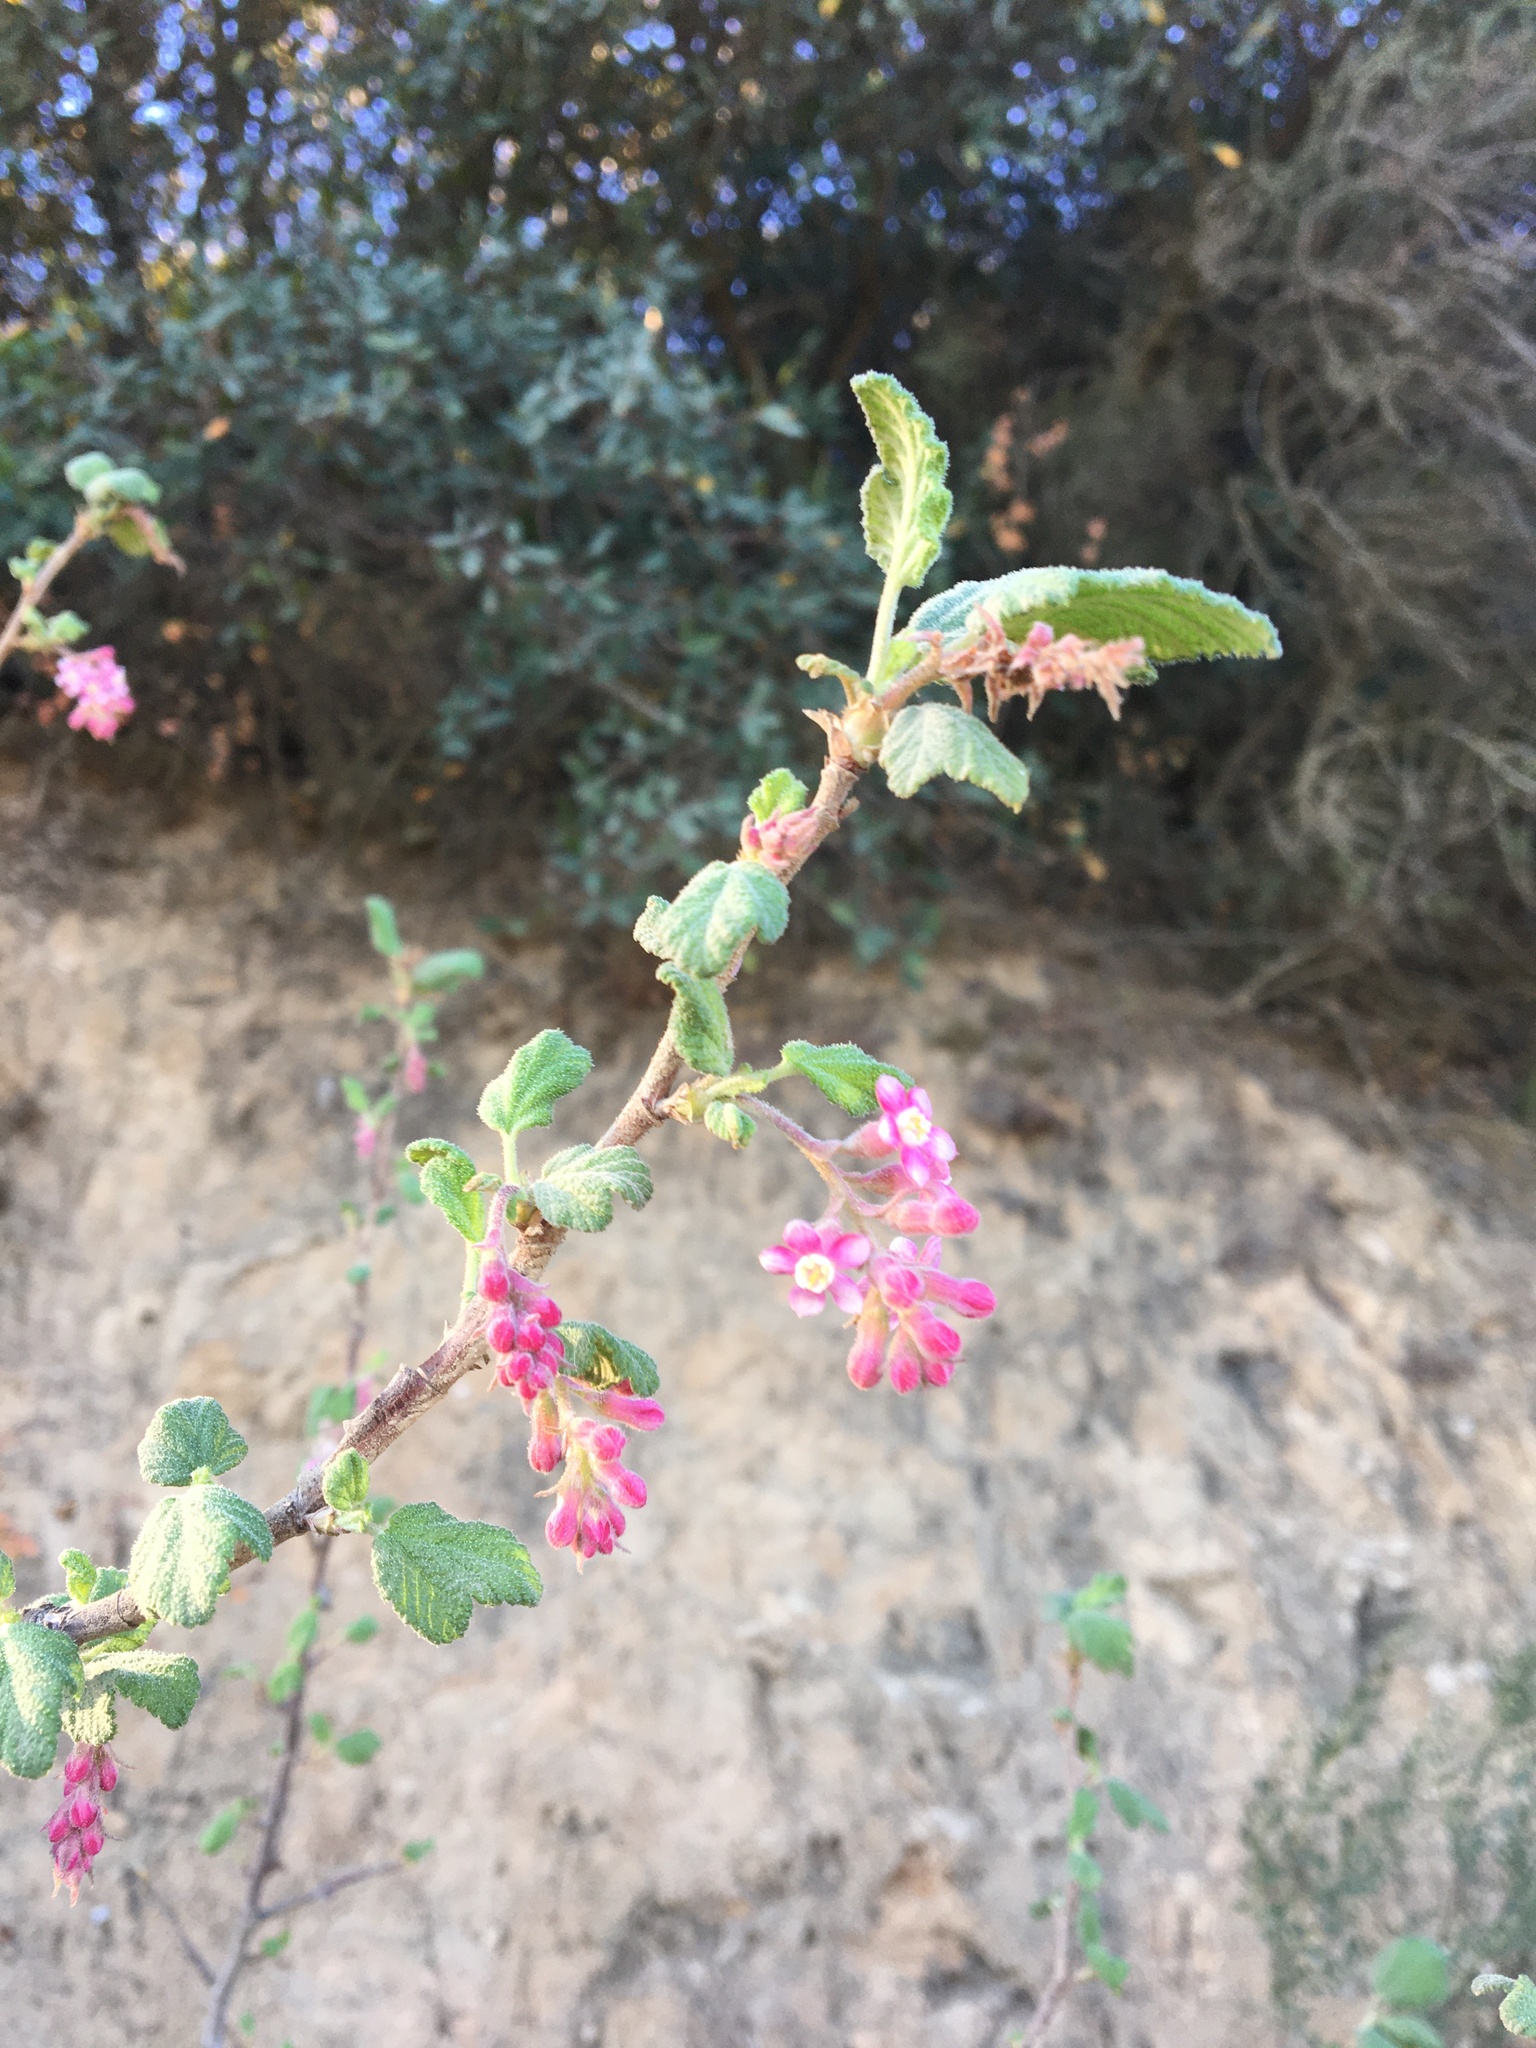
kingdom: Plantae
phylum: Tracheophyta
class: Magnoliopsida
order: Saxifragales
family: Grossulariaceae
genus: Ribes
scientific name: Ribes malvaceum
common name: Chaparral currant
